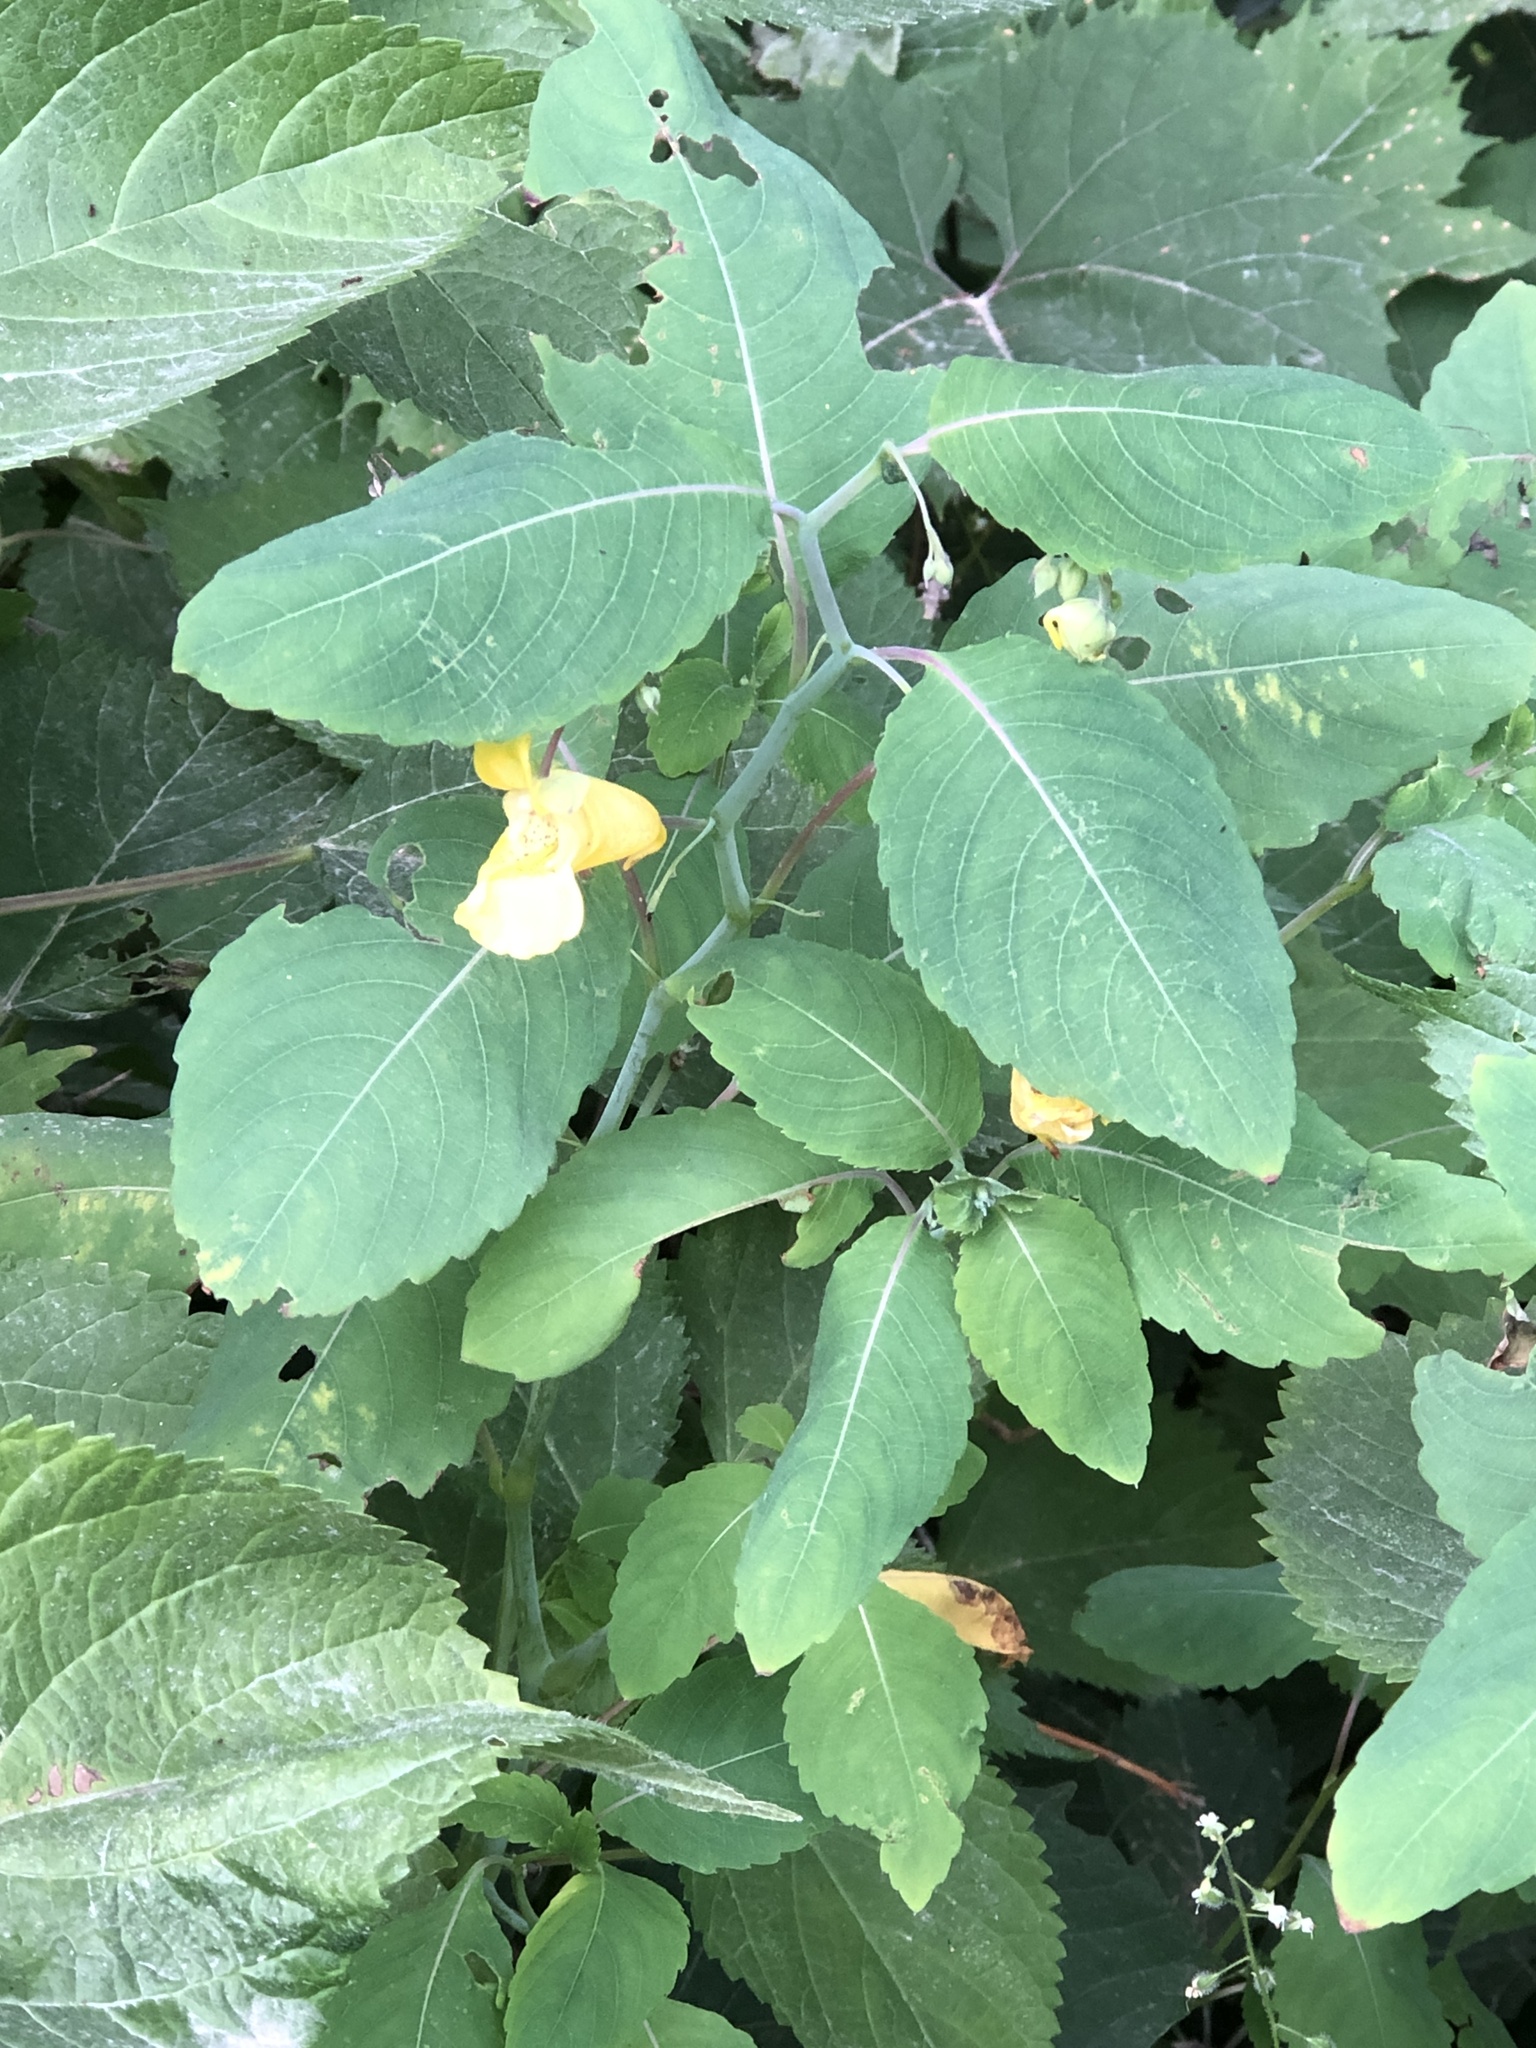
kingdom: Plantae
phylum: Tracheophyta
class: Magnoliopsida
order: Ericales
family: Balsaminaceae
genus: Impatiens
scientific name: Impatiens pallida
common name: Pale snapweed
